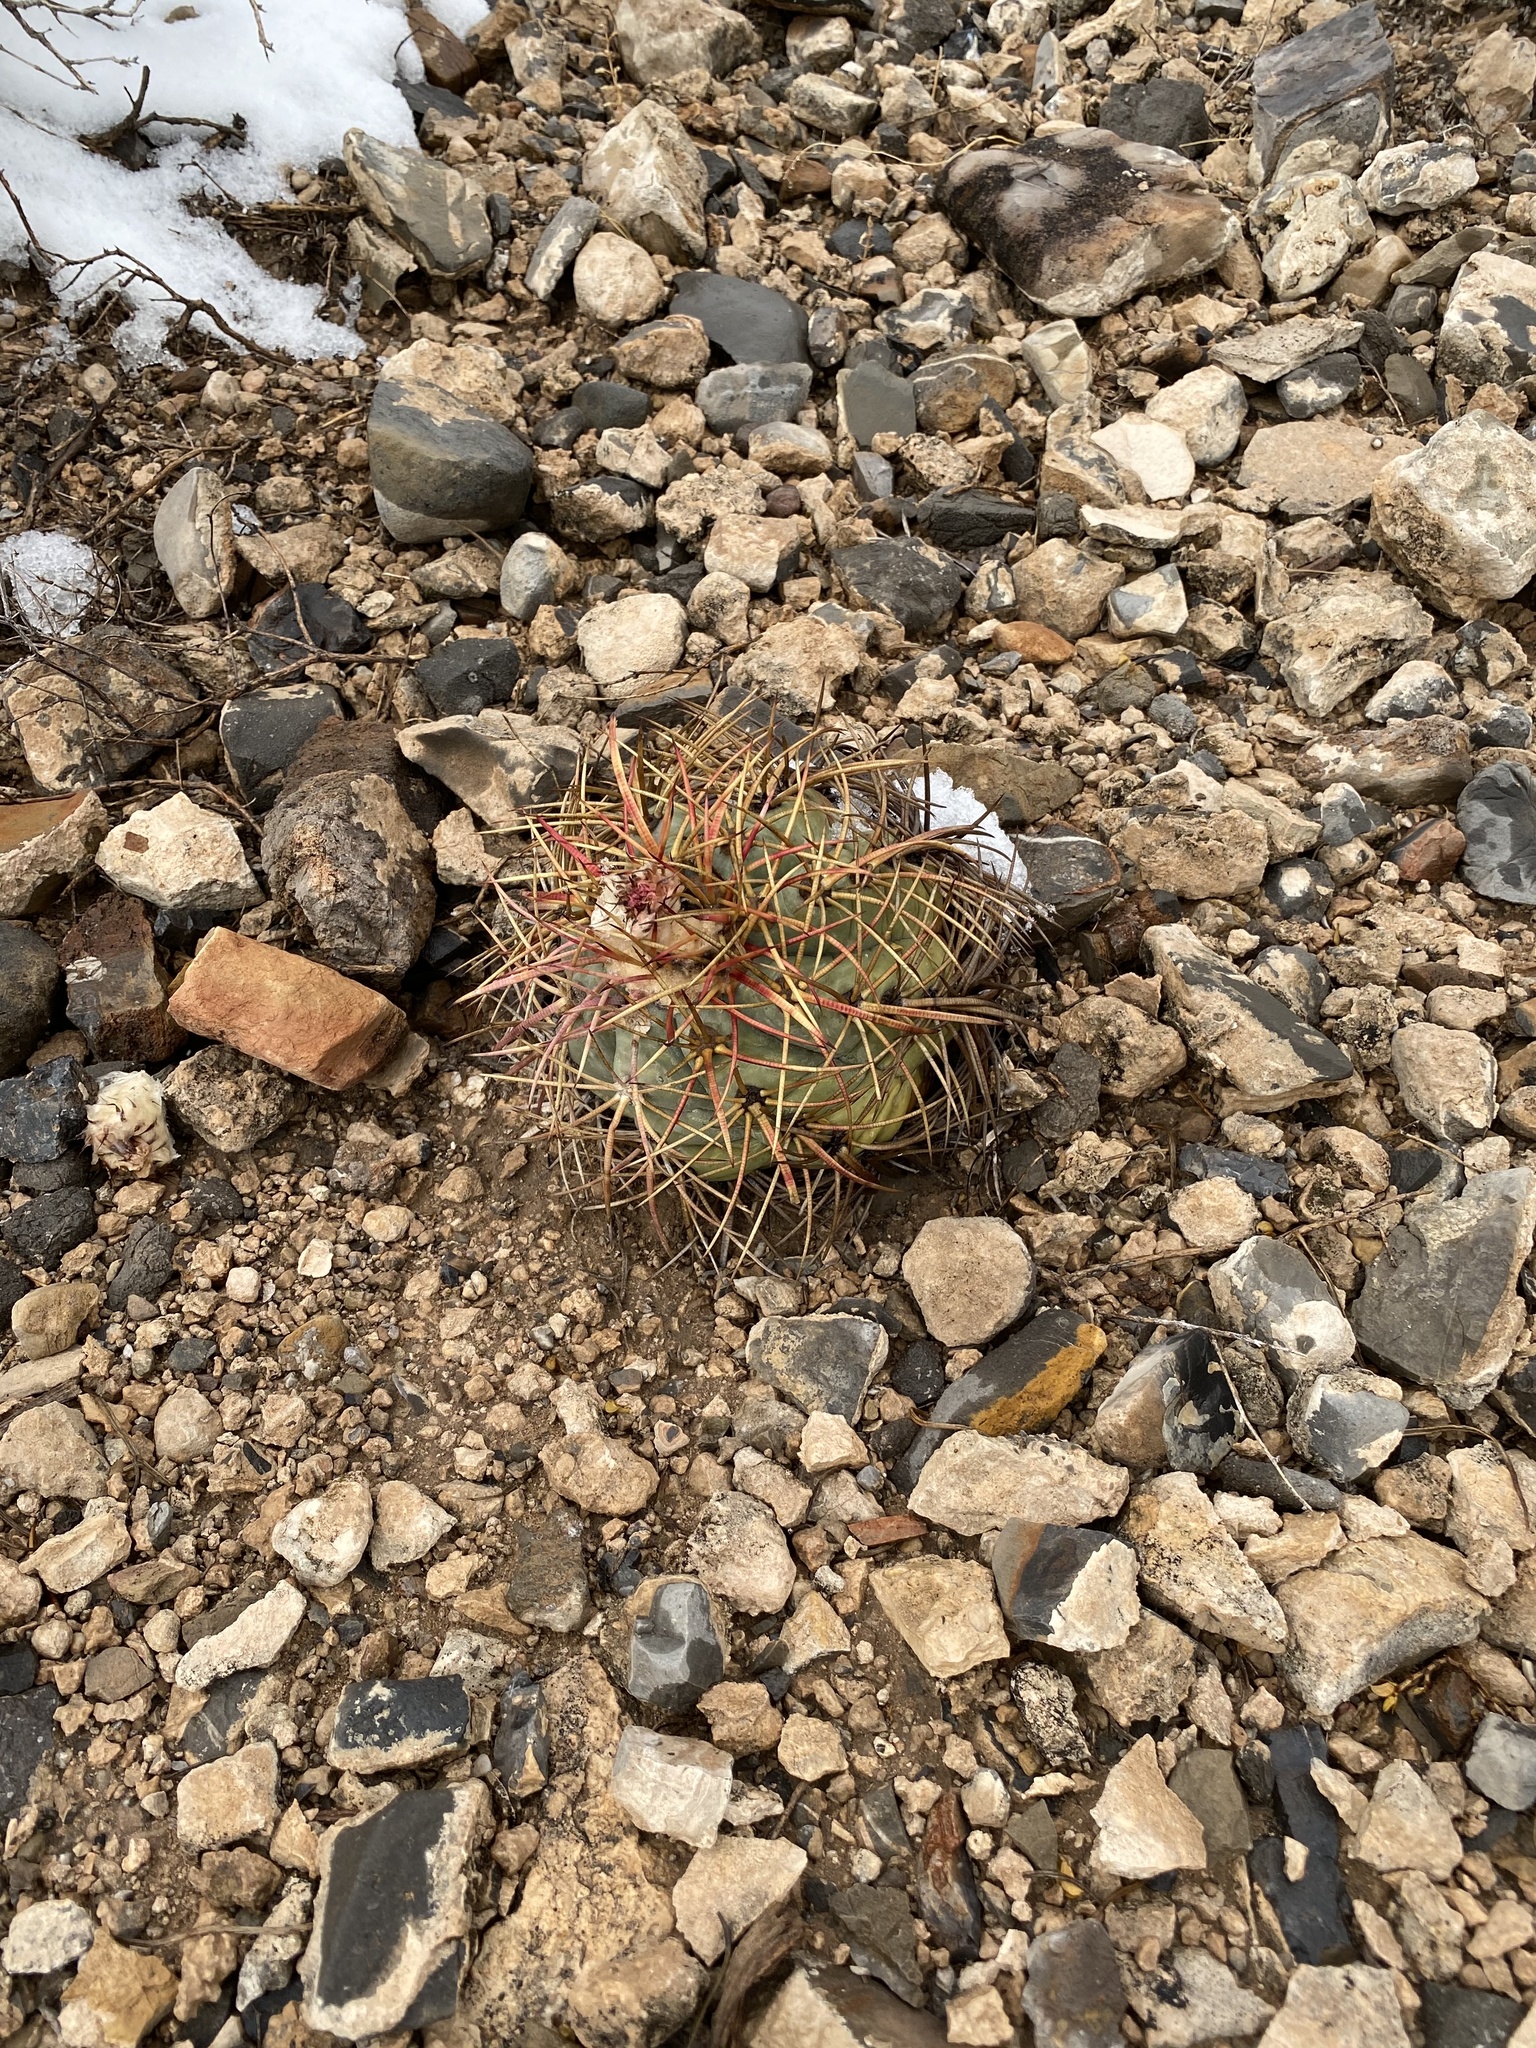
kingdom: Plantae
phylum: Tracheophyta
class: Magnoliopsida
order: Caryophyllales
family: Cactaceae
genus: Echinocactus
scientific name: Echinocactus horizonthalonius
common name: Devilshead
